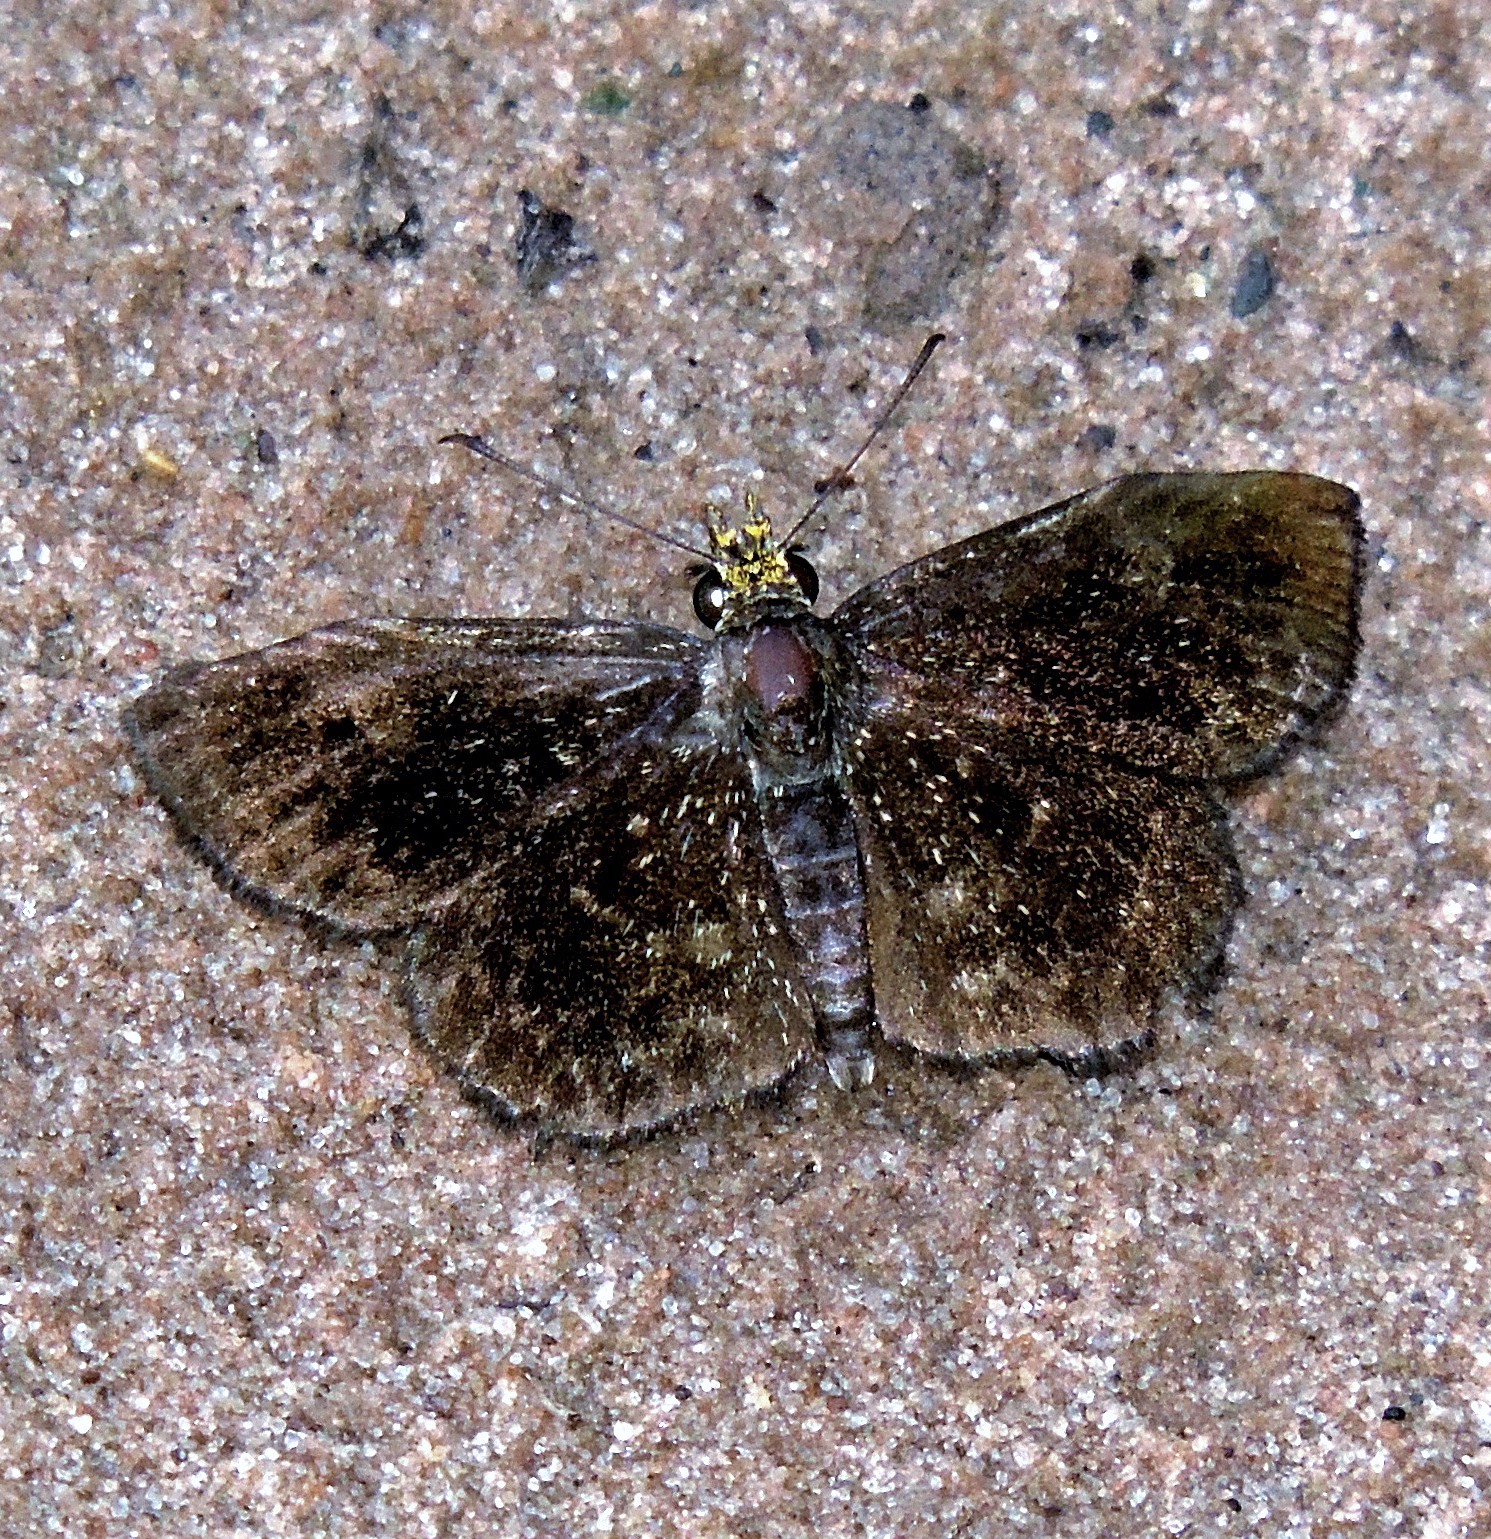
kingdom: Animalia
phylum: Arthropoda
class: Insecta
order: Lepidoptera
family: Hesperiidae
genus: Staphylus
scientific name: Staphylus musculus
